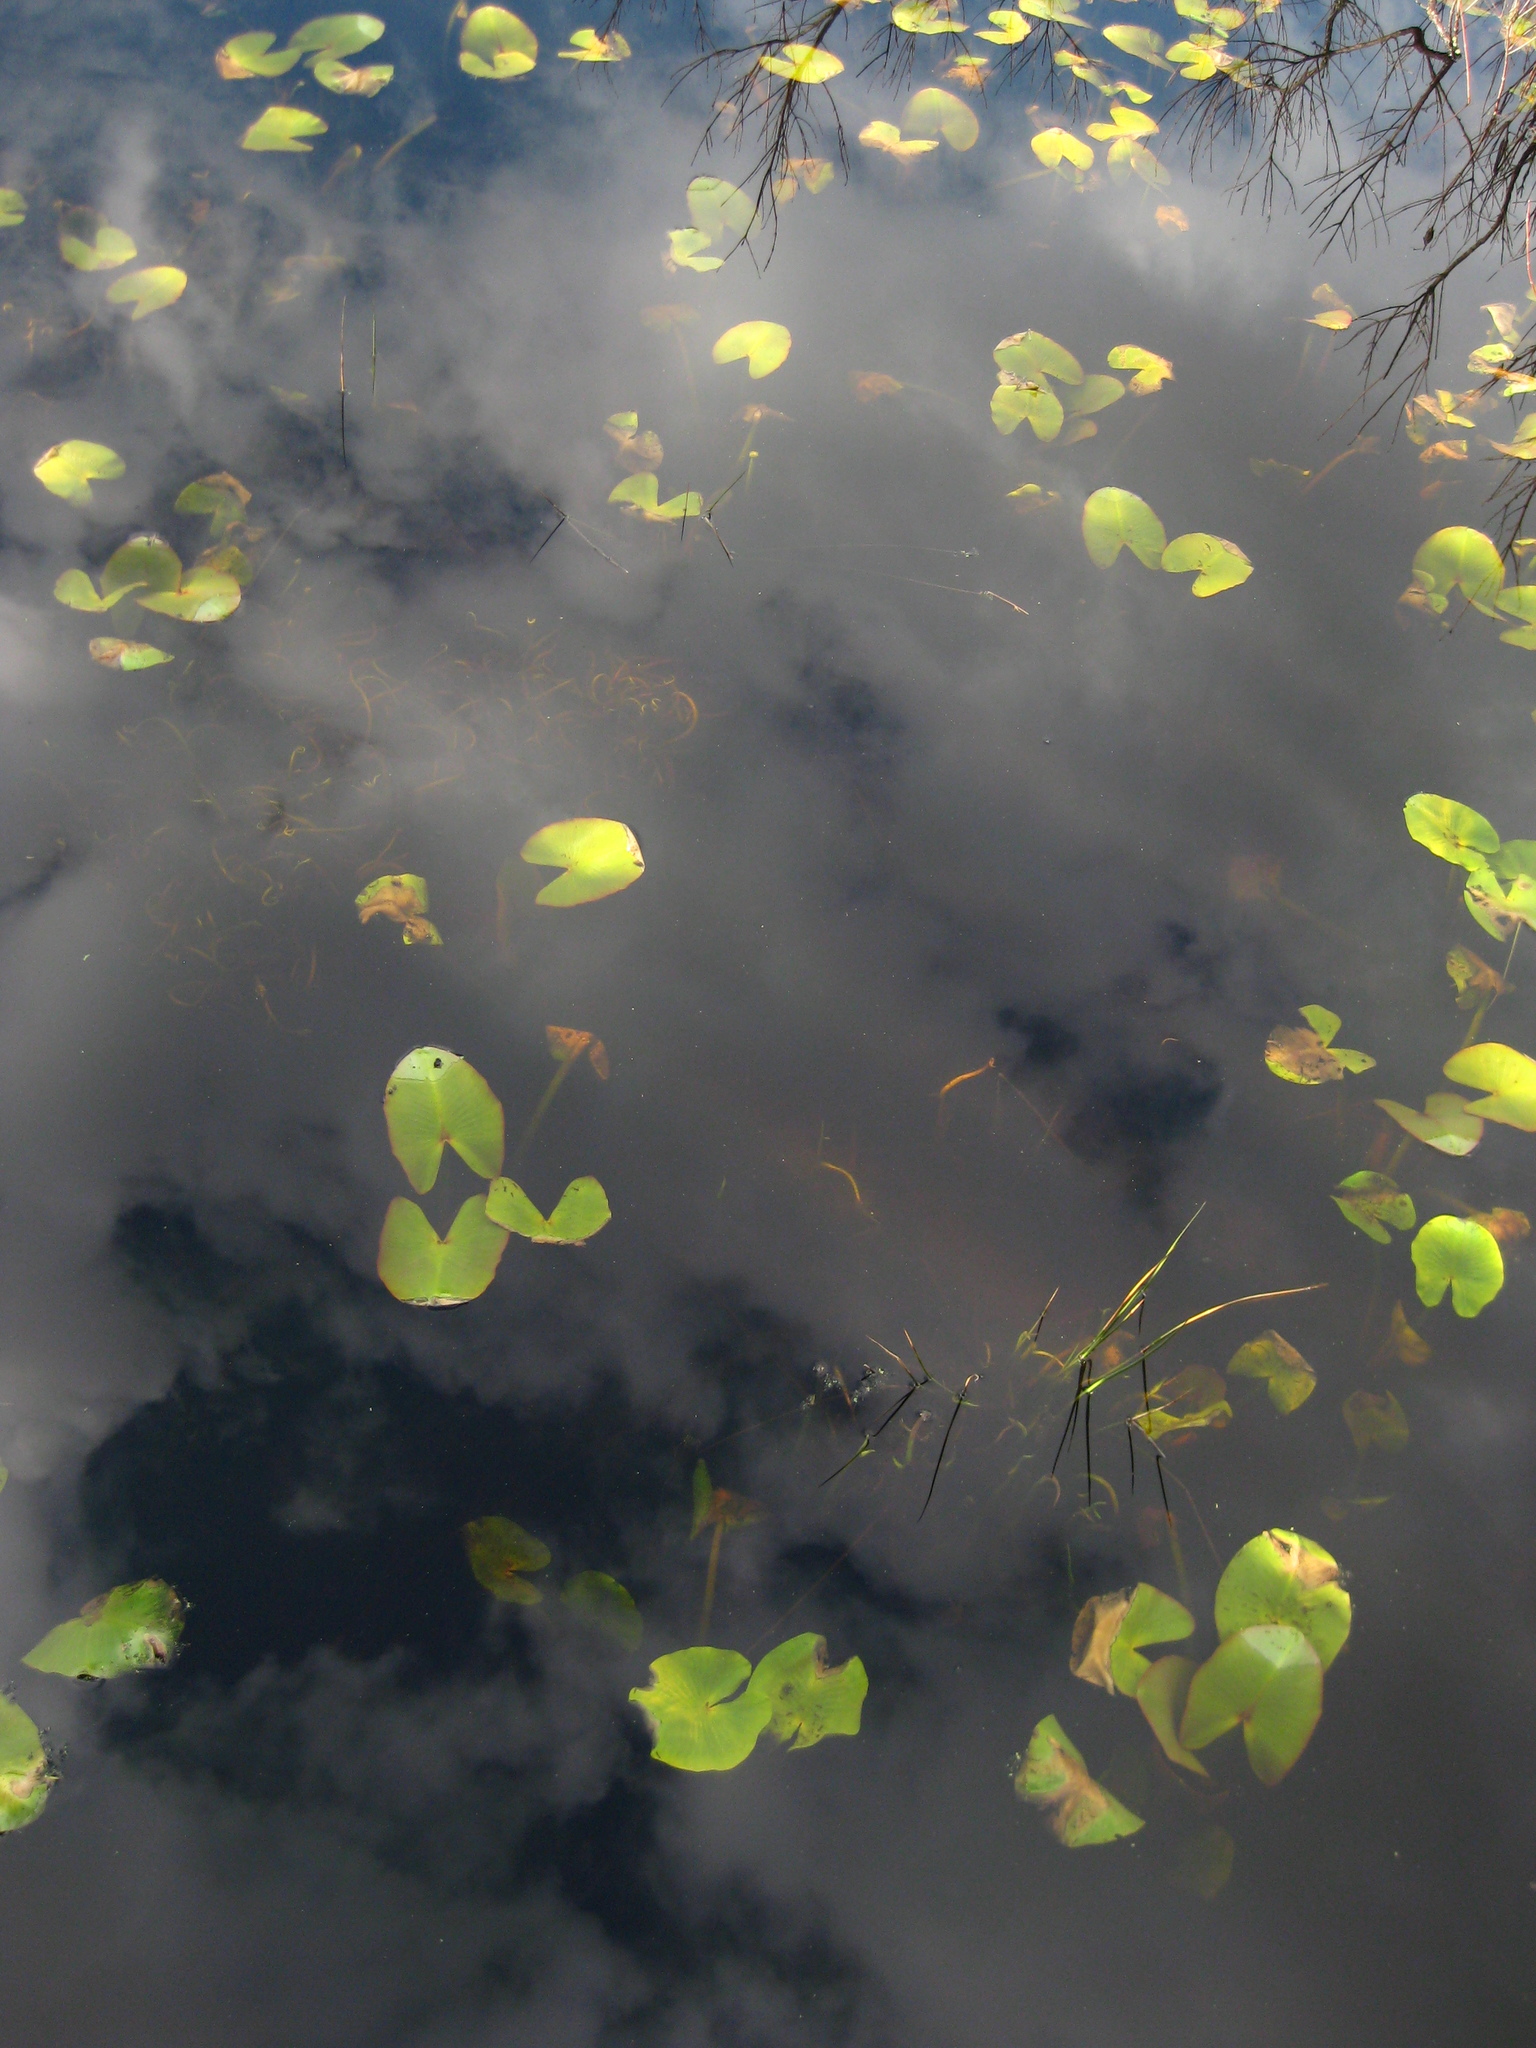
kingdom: Plantae
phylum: Tracheophyta
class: Magnoliopsida
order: Nymphaeales
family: Nymphaeaceae
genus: Nuphar
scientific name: Nuphar advena
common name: Spatter-dock
